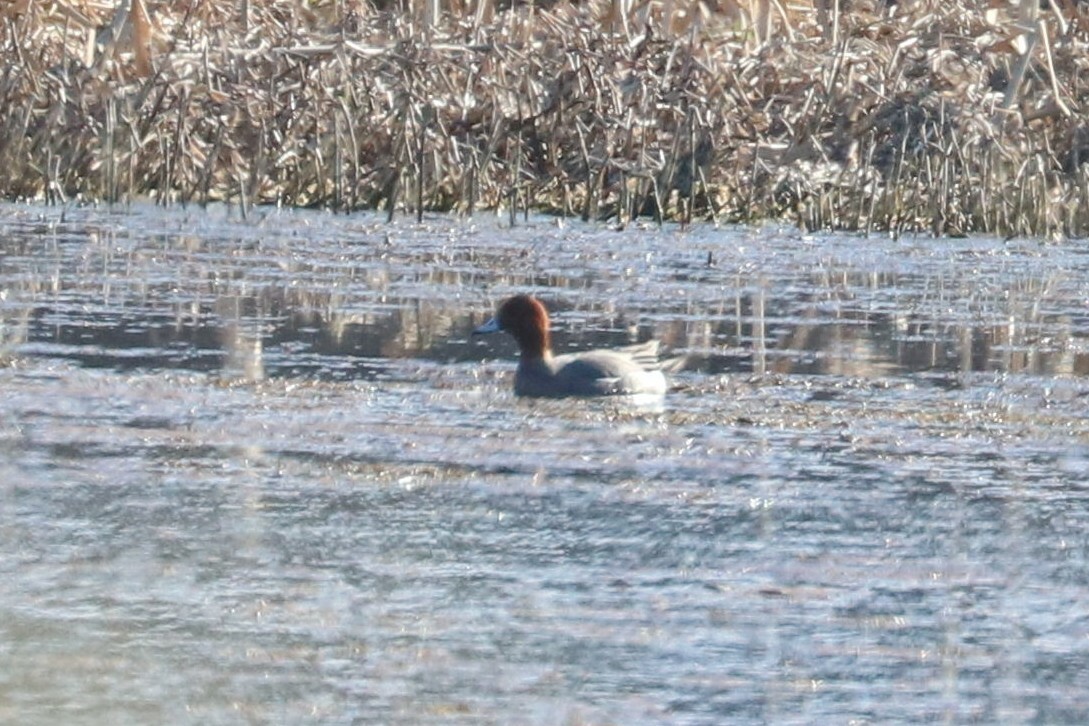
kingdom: Animalia
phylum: Chordata
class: Aves
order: Anseriformes
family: Anatidae
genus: Mareca
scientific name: Mareca penelope
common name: Eurasian wigeon
